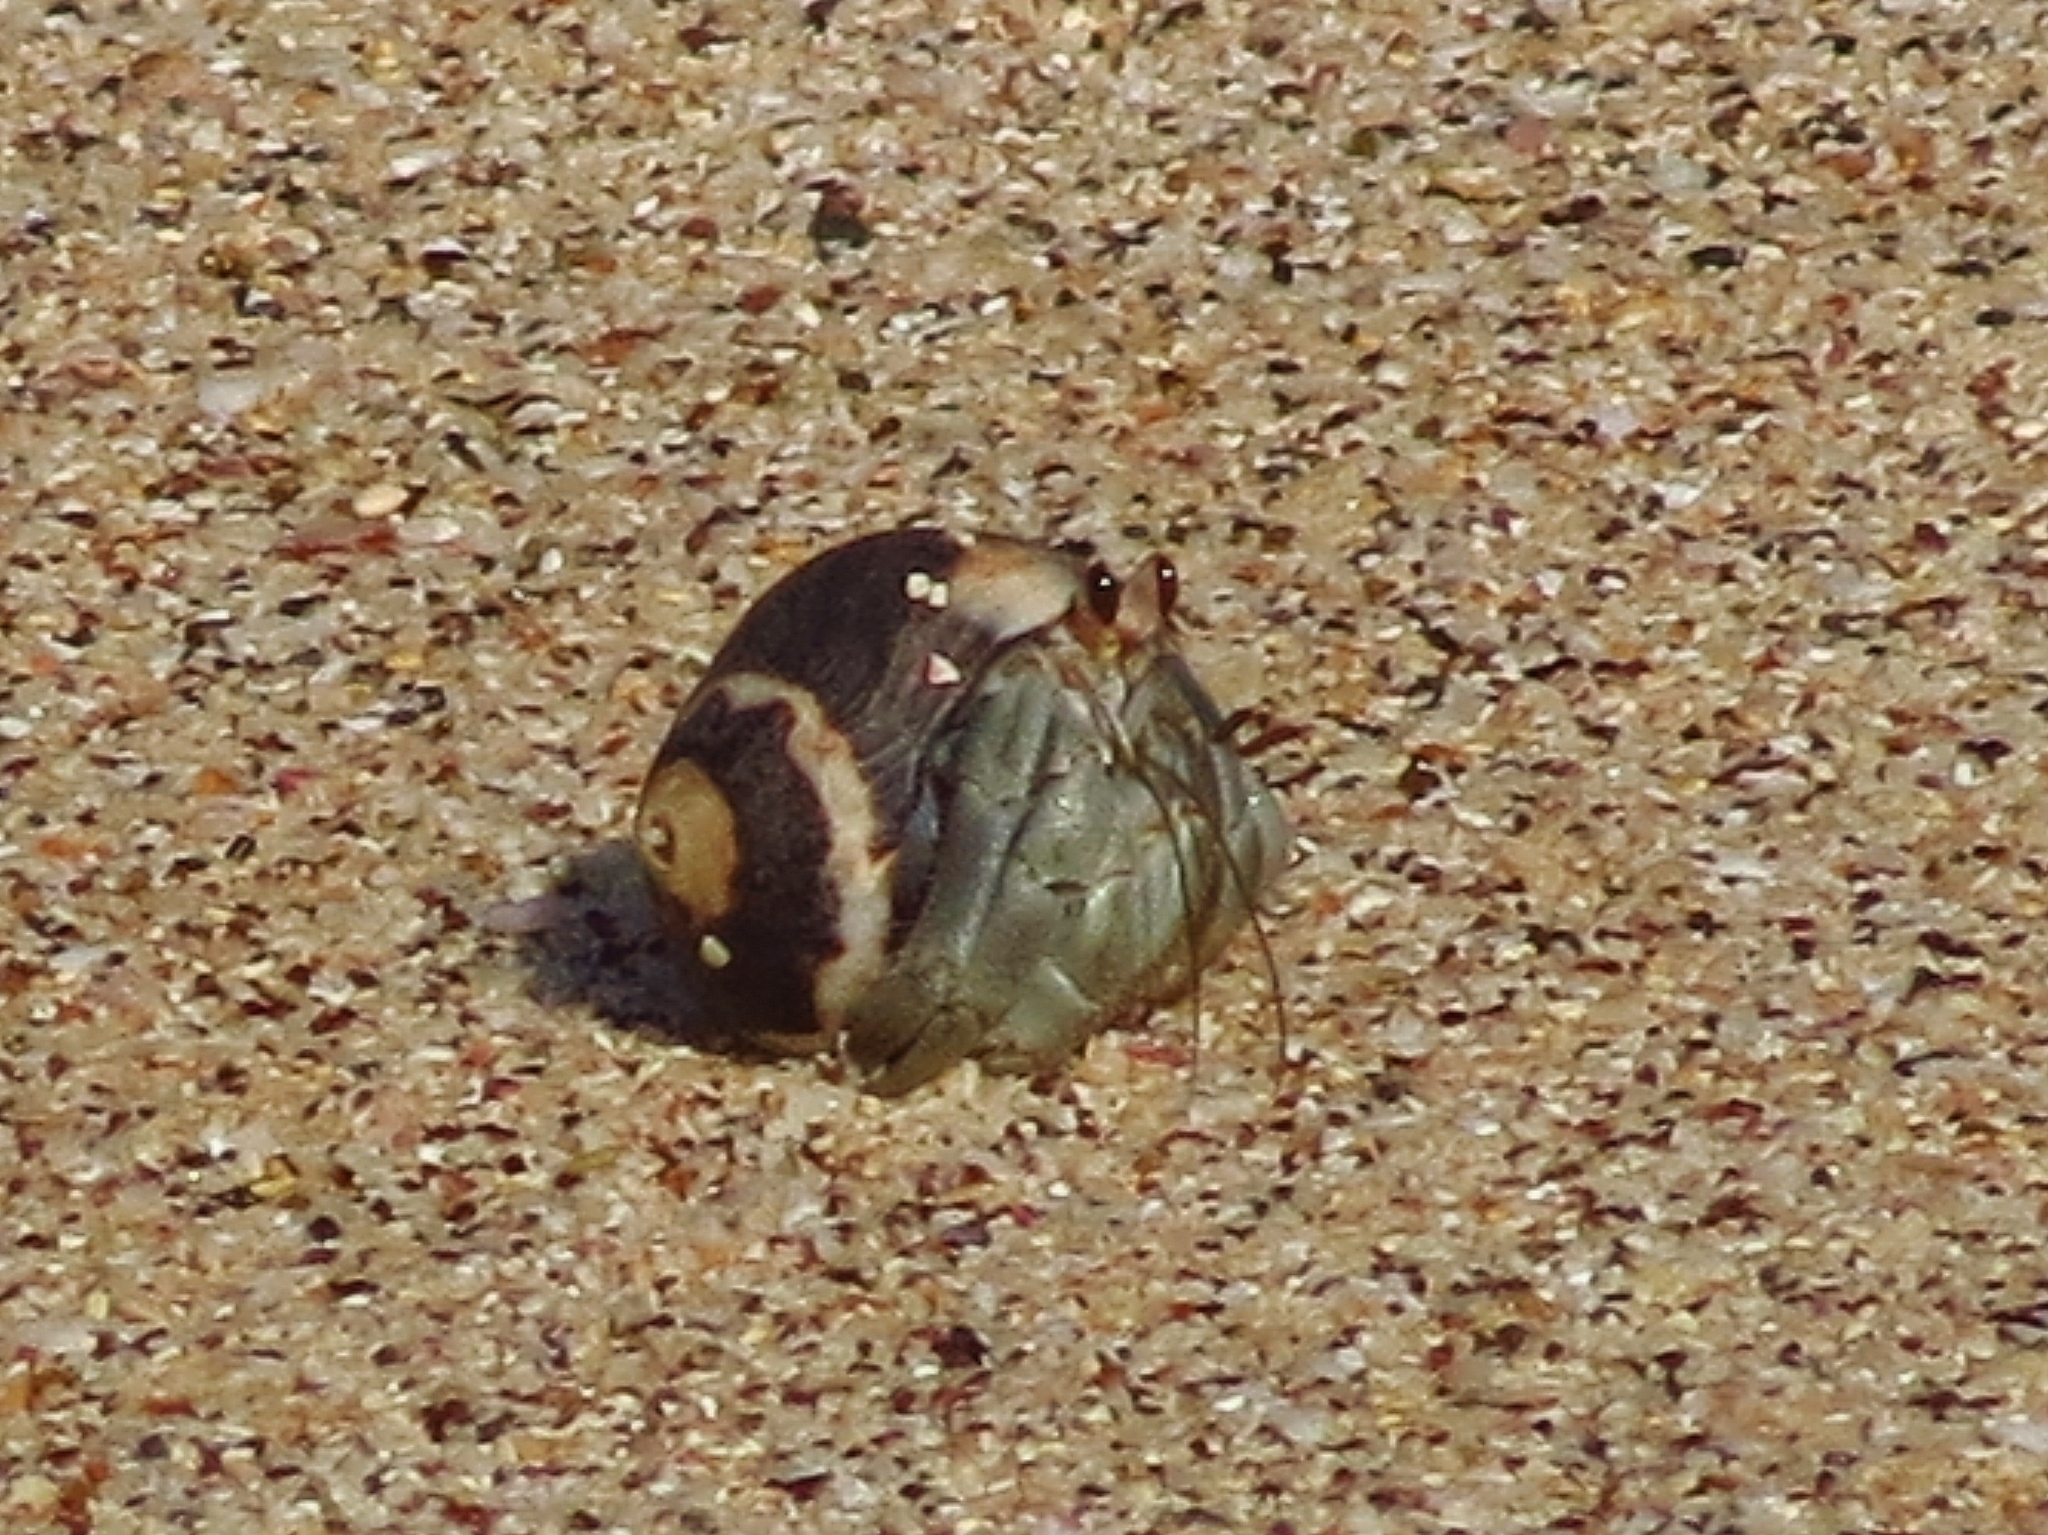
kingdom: Animalia
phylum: Arthropoda
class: Malacostraca
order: Decapoda
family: Coenobitidae
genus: Coenobita
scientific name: Coenobita compressus
